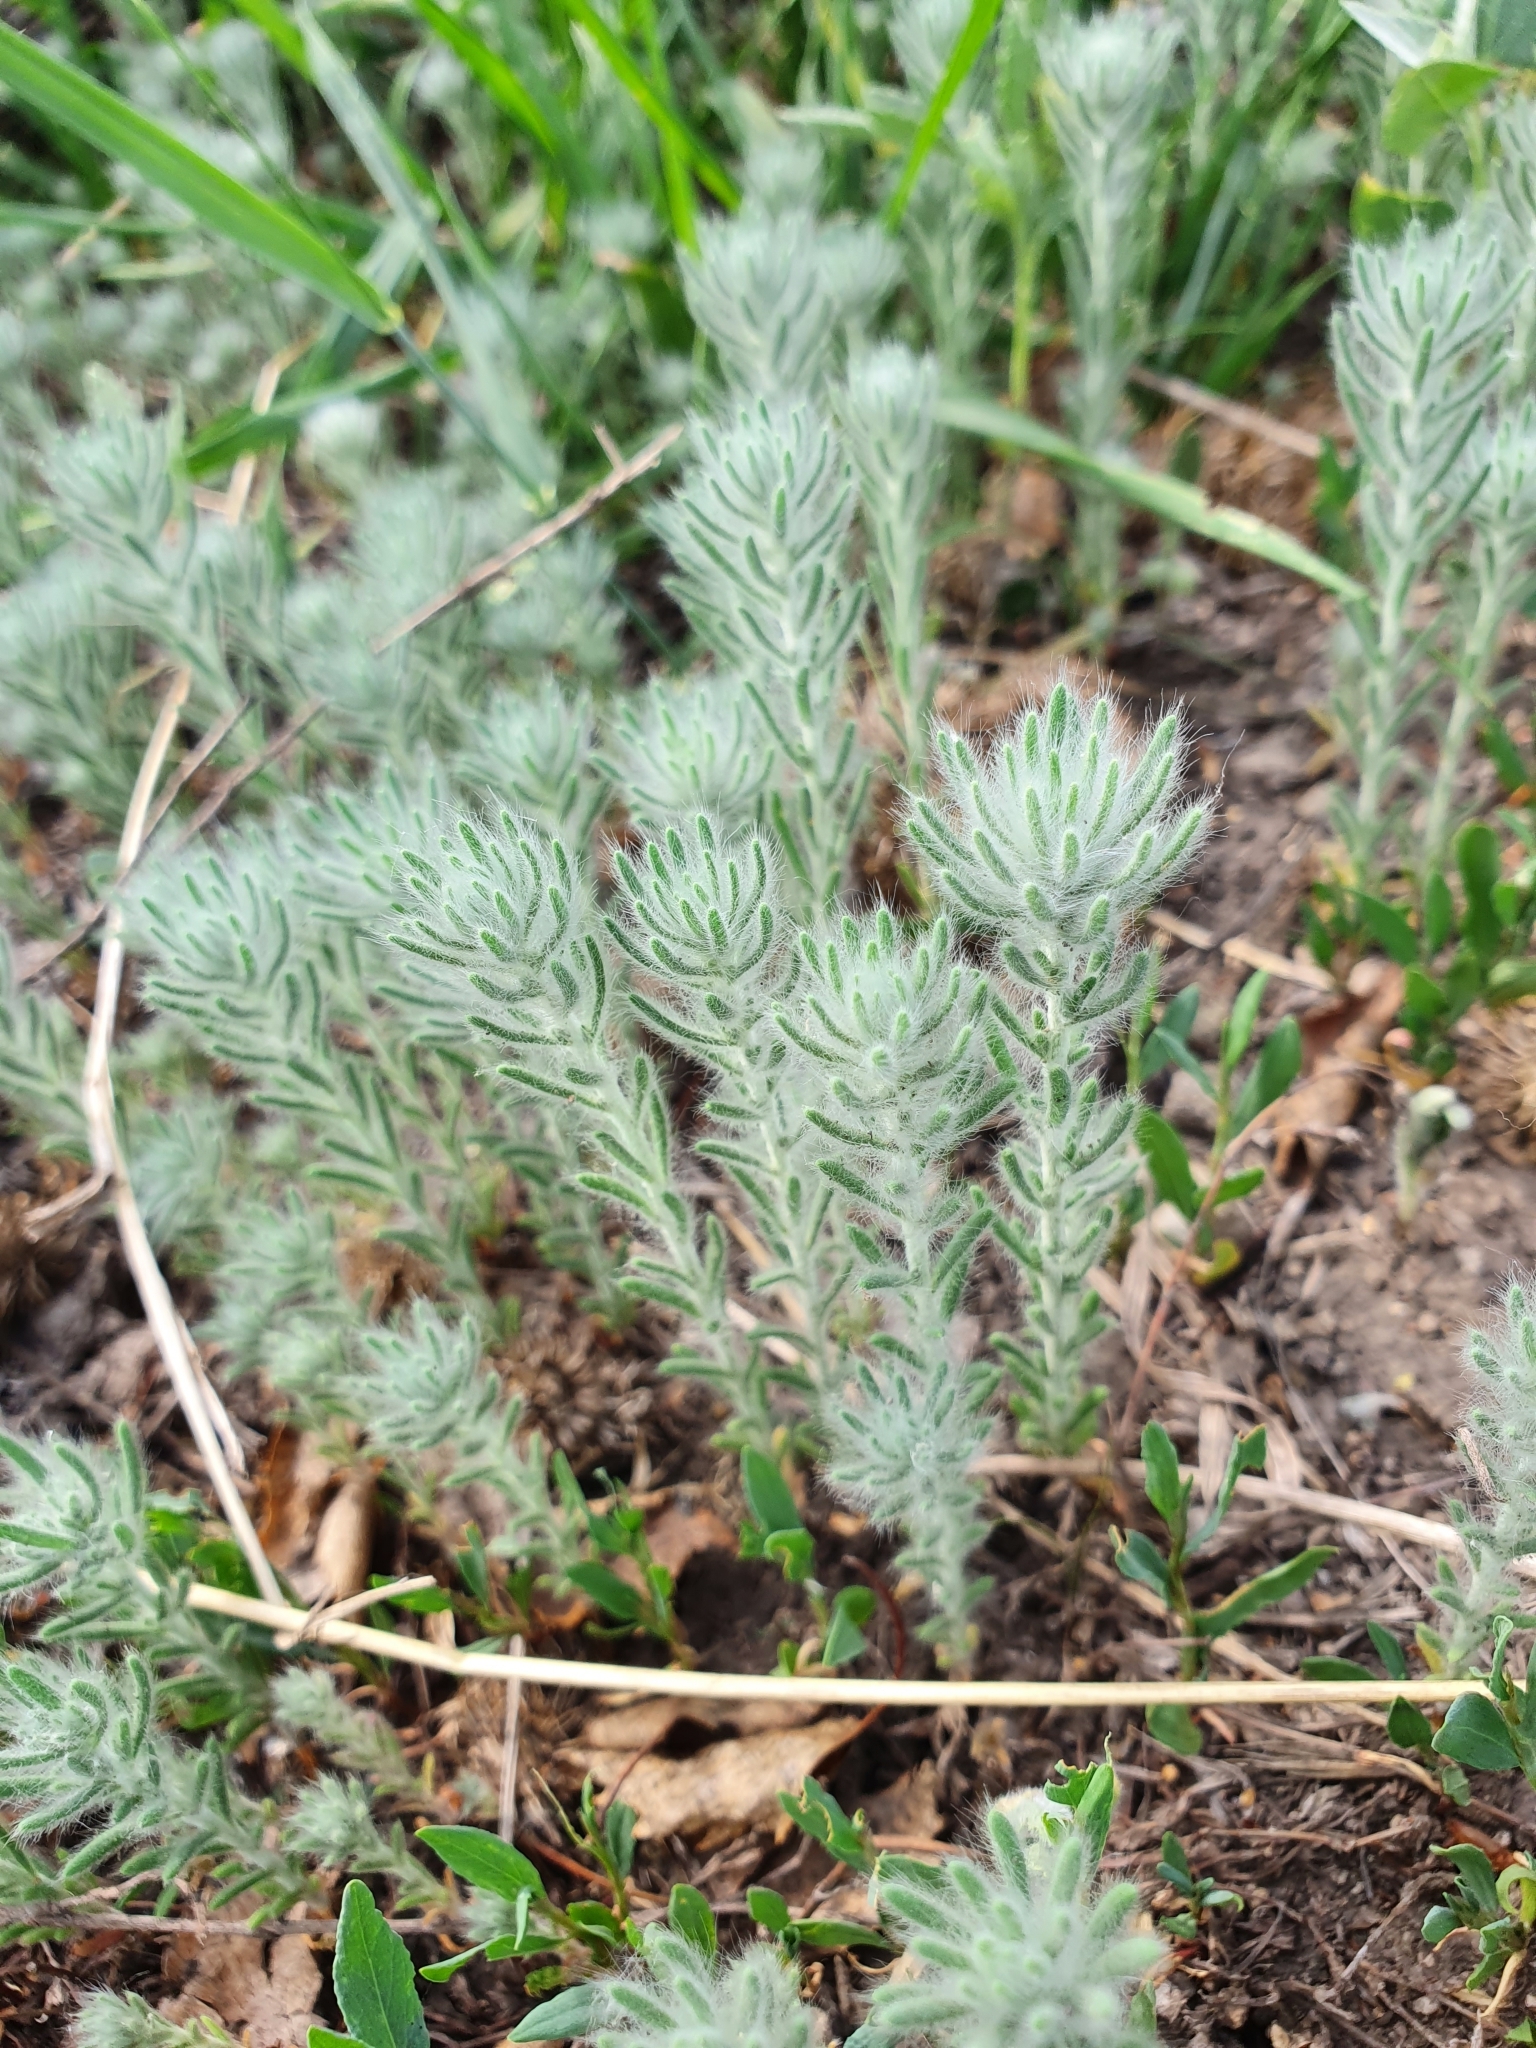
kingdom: Plantae
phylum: Tracheophyta
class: Magnoliopsida
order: Caryophyllales
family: Amaranthaceae
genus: Sedobassia
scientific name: Sedobassia sedoides
